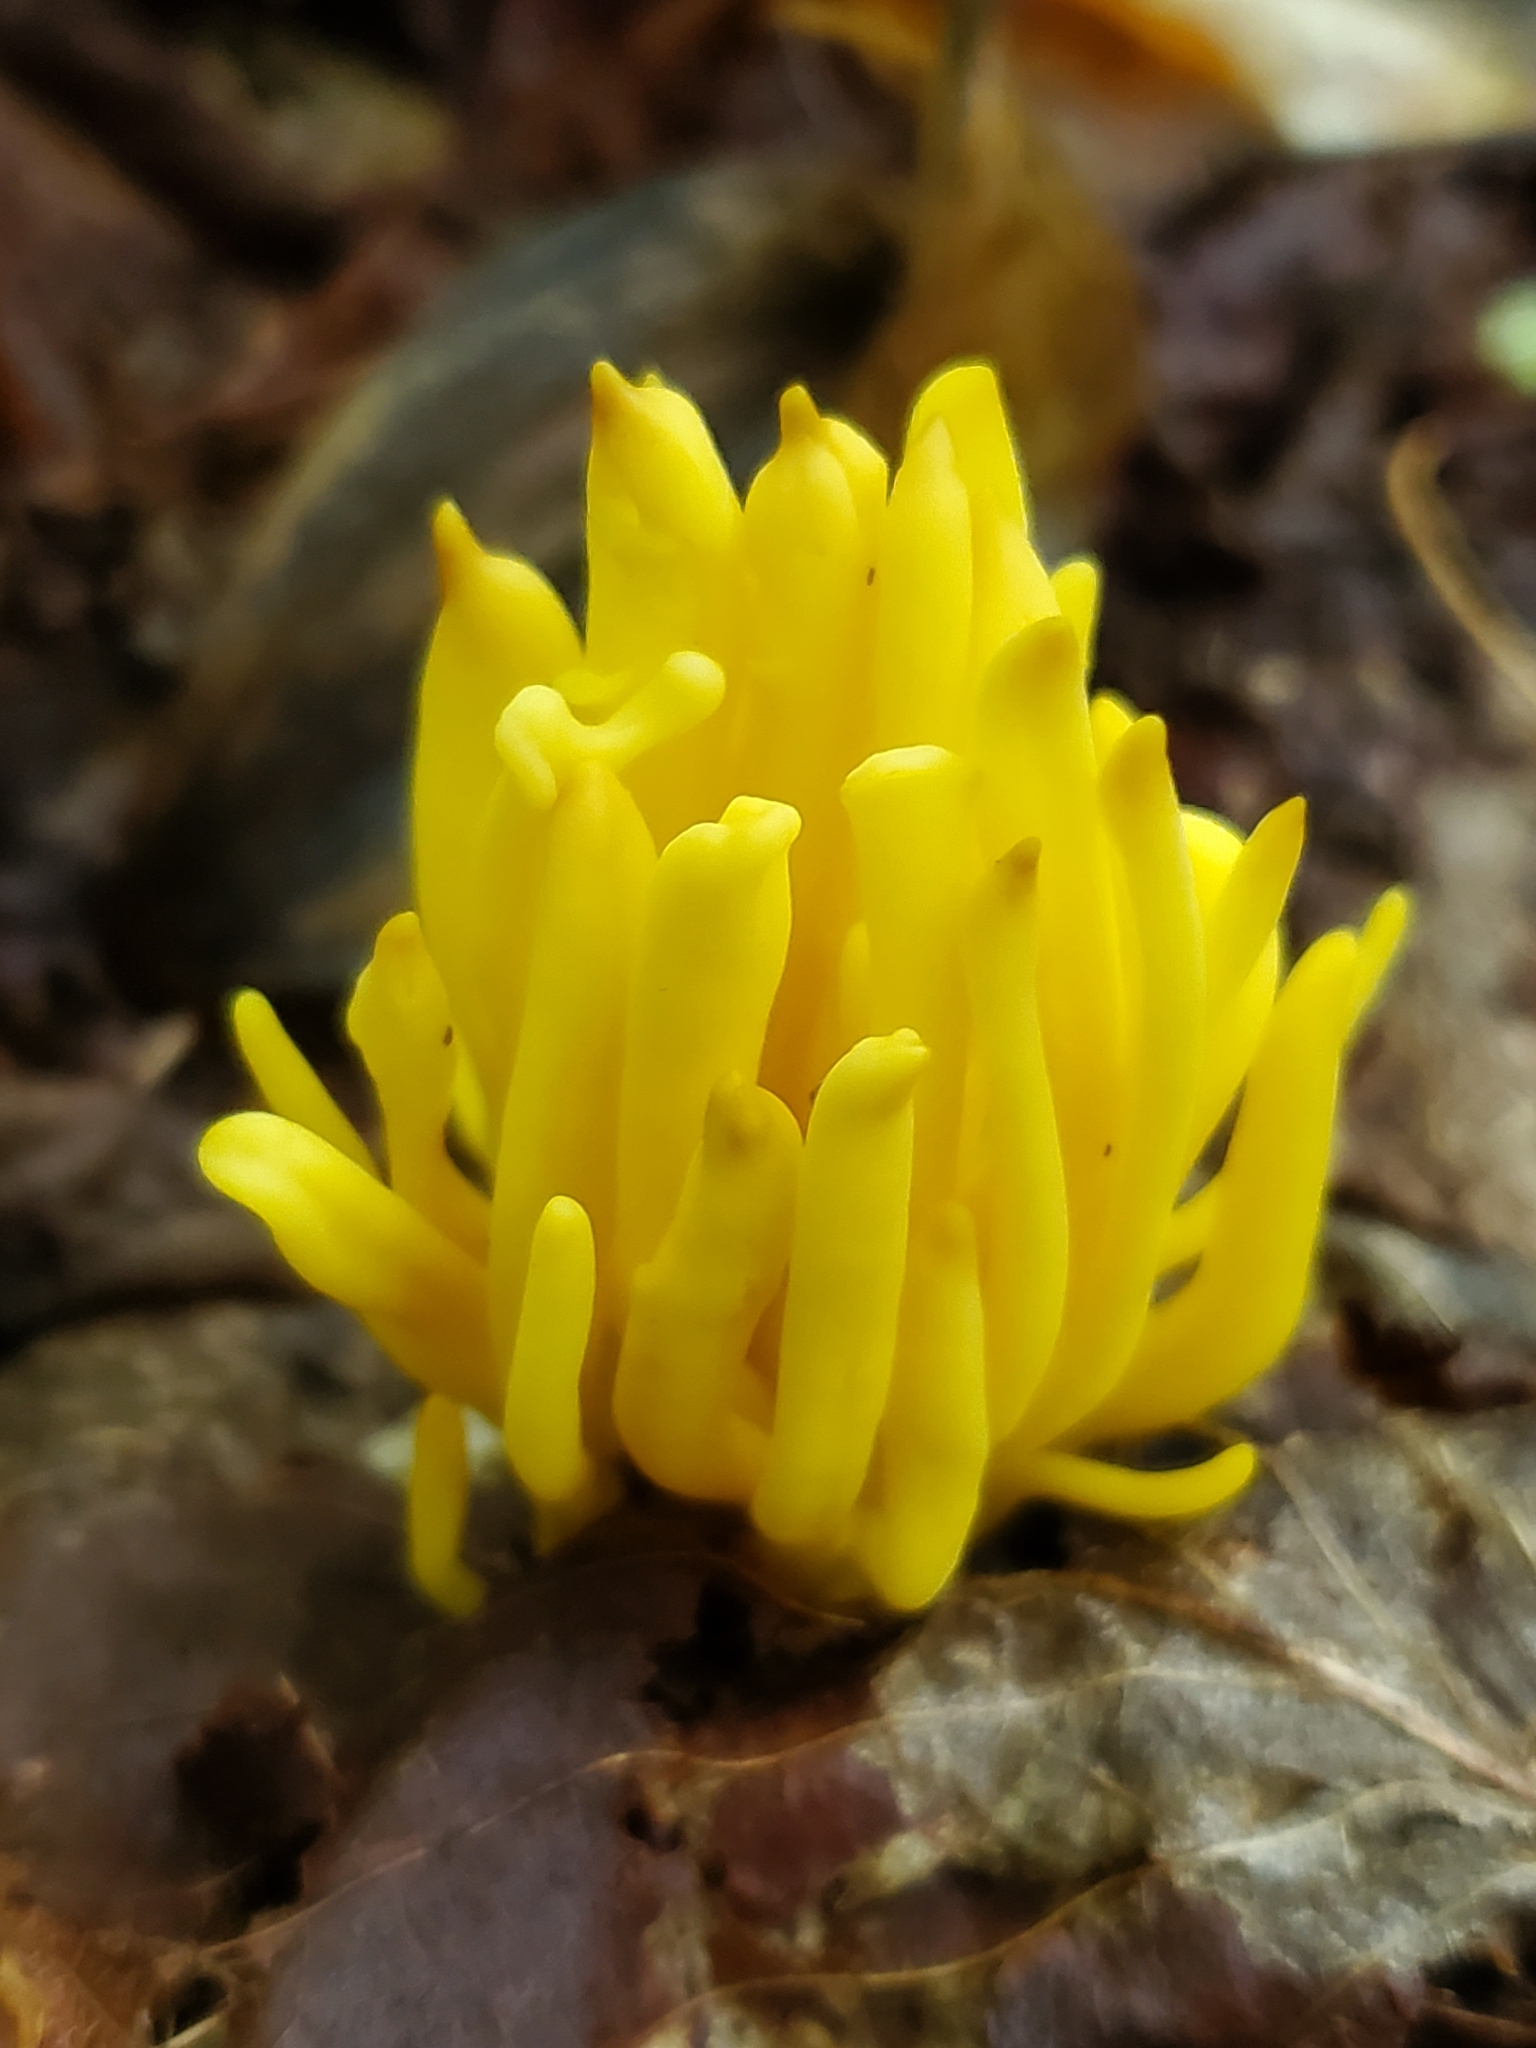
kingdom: Fungi
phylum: Basidiomycota
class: Agaricomycetes
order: Agaricales
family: Clavariaceae
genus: Clavulinopsis
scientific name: Clavulinopsis fusiformis
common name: Golden spindles
